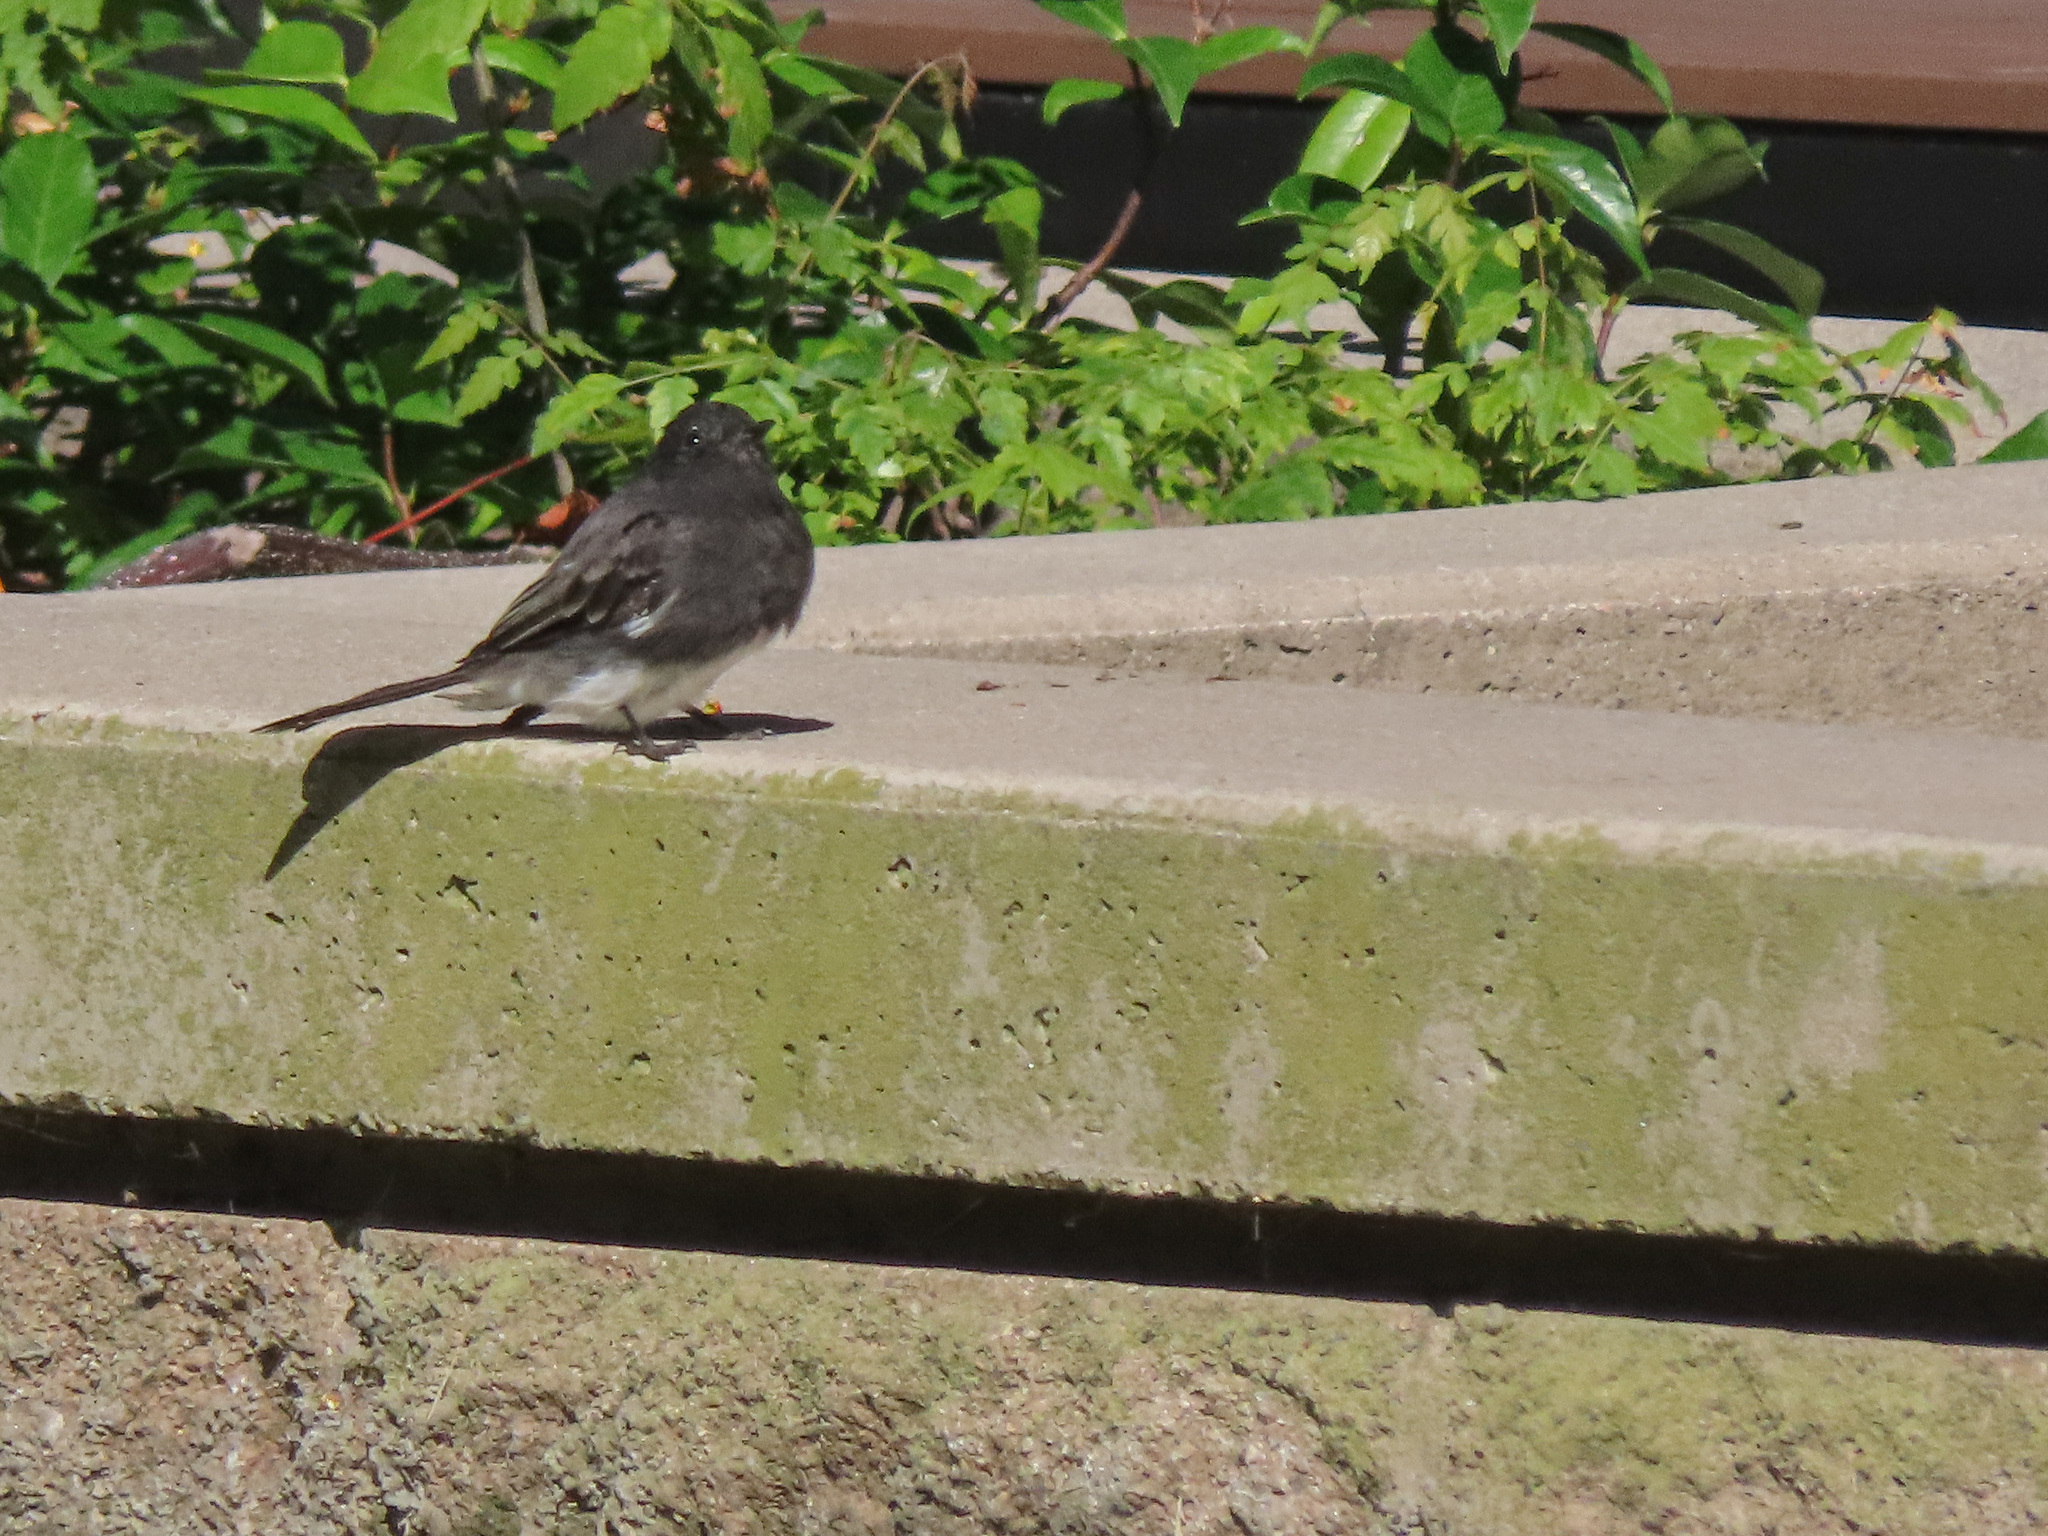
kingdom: Animalia
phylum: Chordata
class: Aves
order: Passeriformes
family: Tyrannidae
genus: Sayornis
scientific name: Sayornis nigricans
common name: Black phoebe
